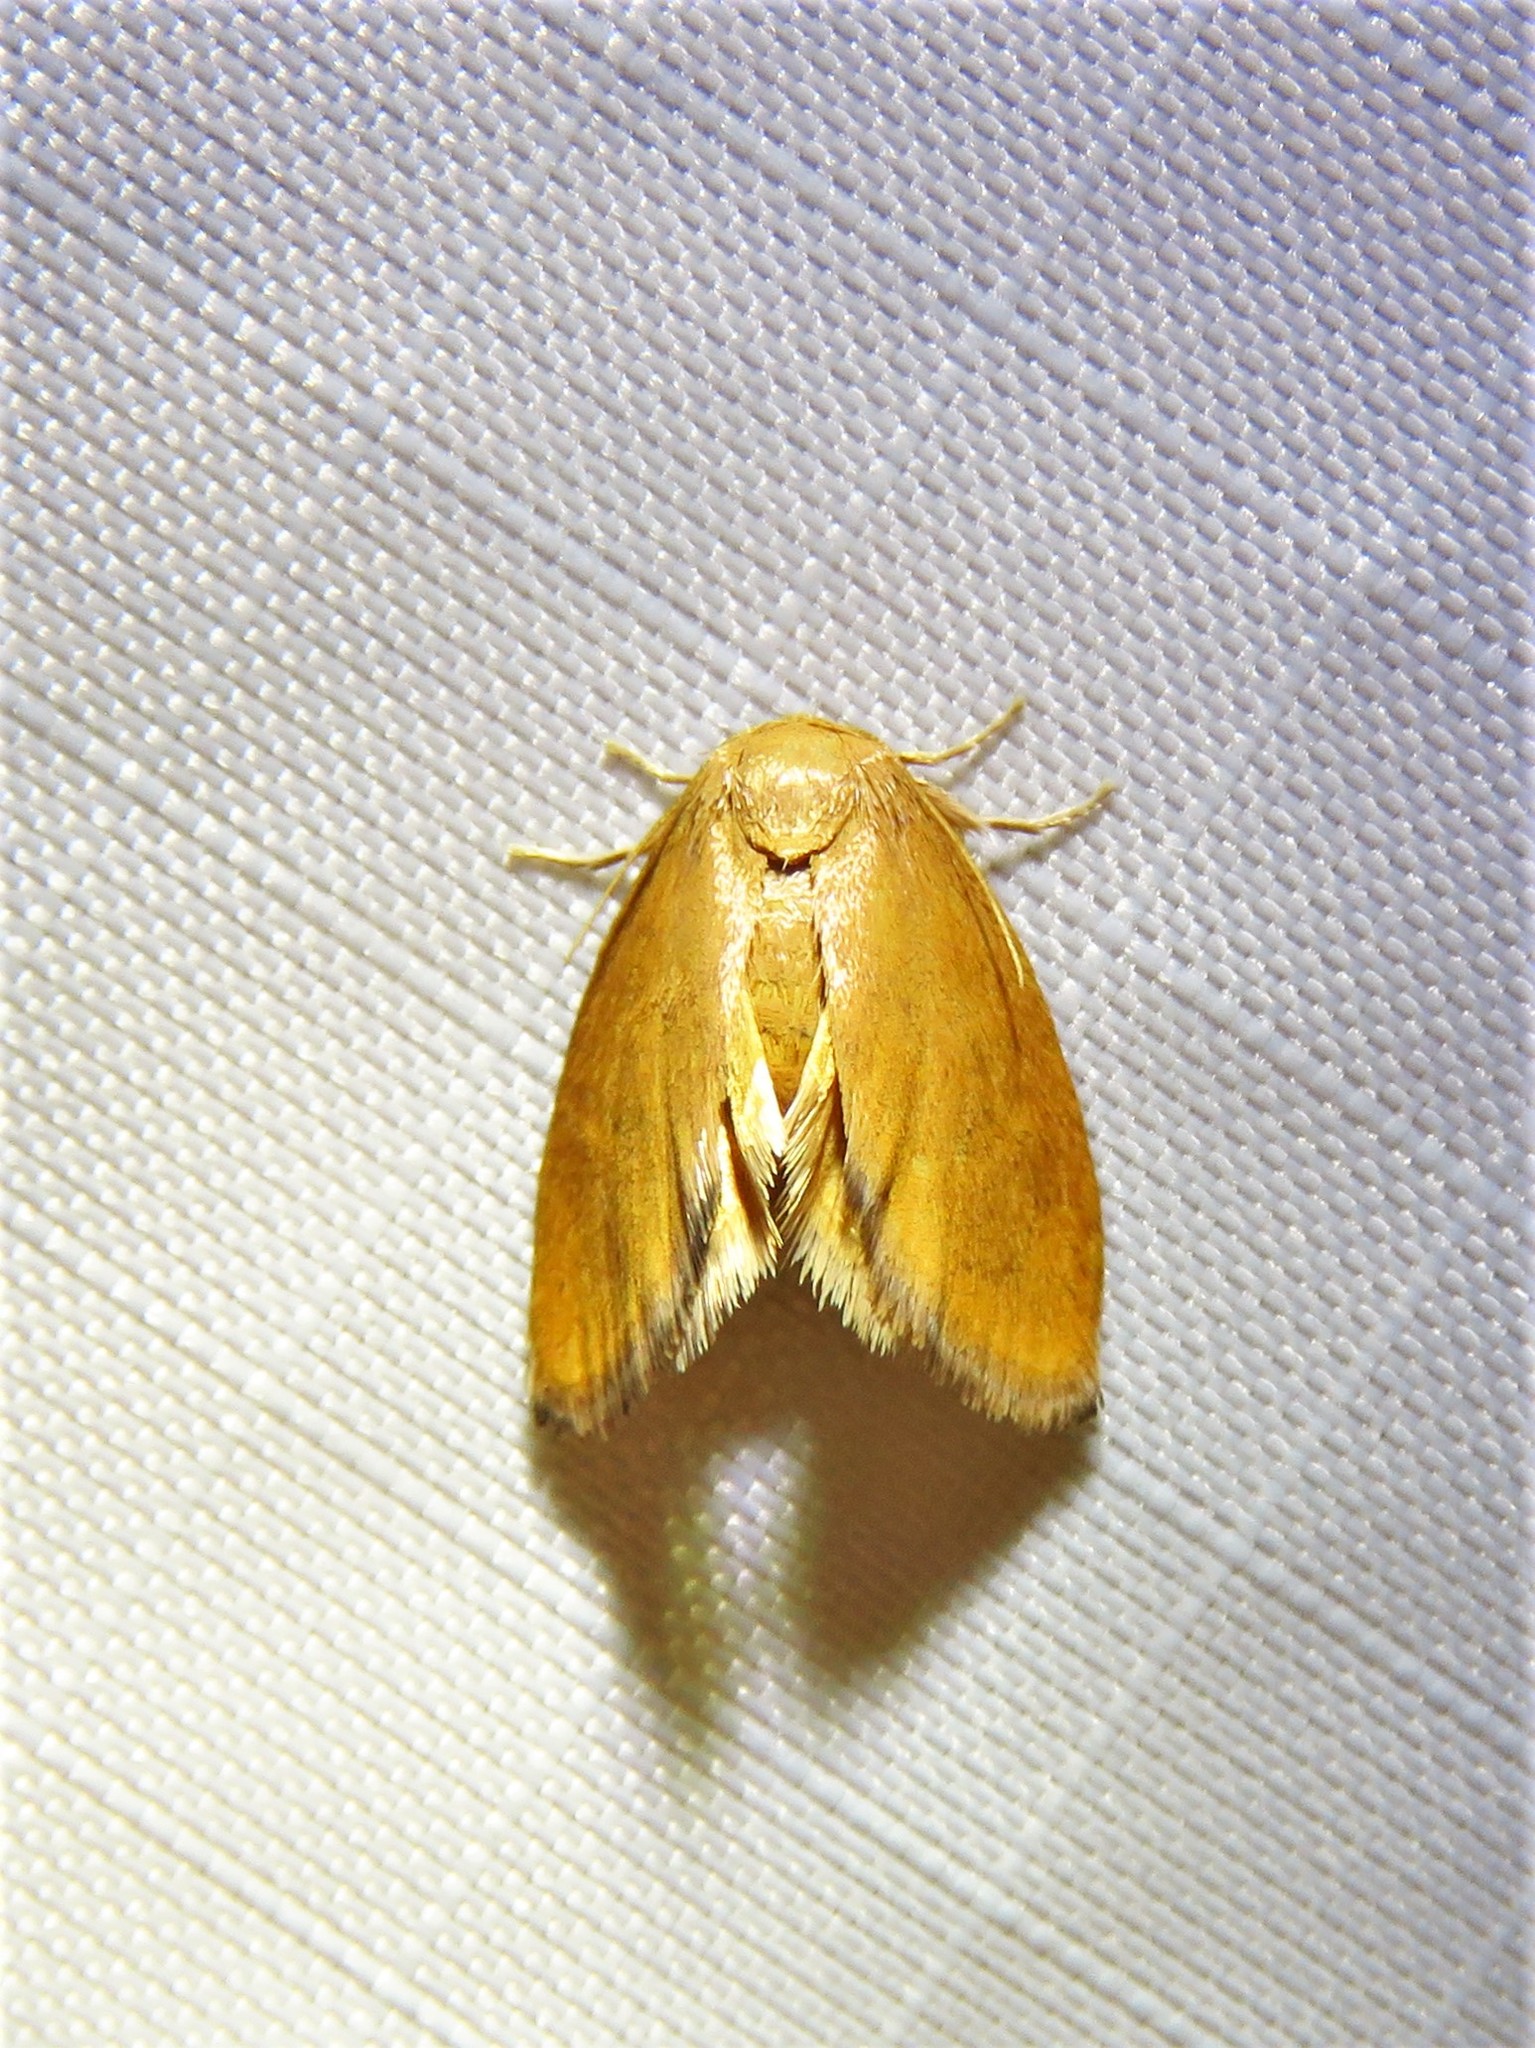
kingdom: Animalia
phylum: Arthropoda
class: Insecta
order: Lepidoptera
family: Limacodidae
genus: Heterogenea
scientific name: Heterogenea shurtleffi
